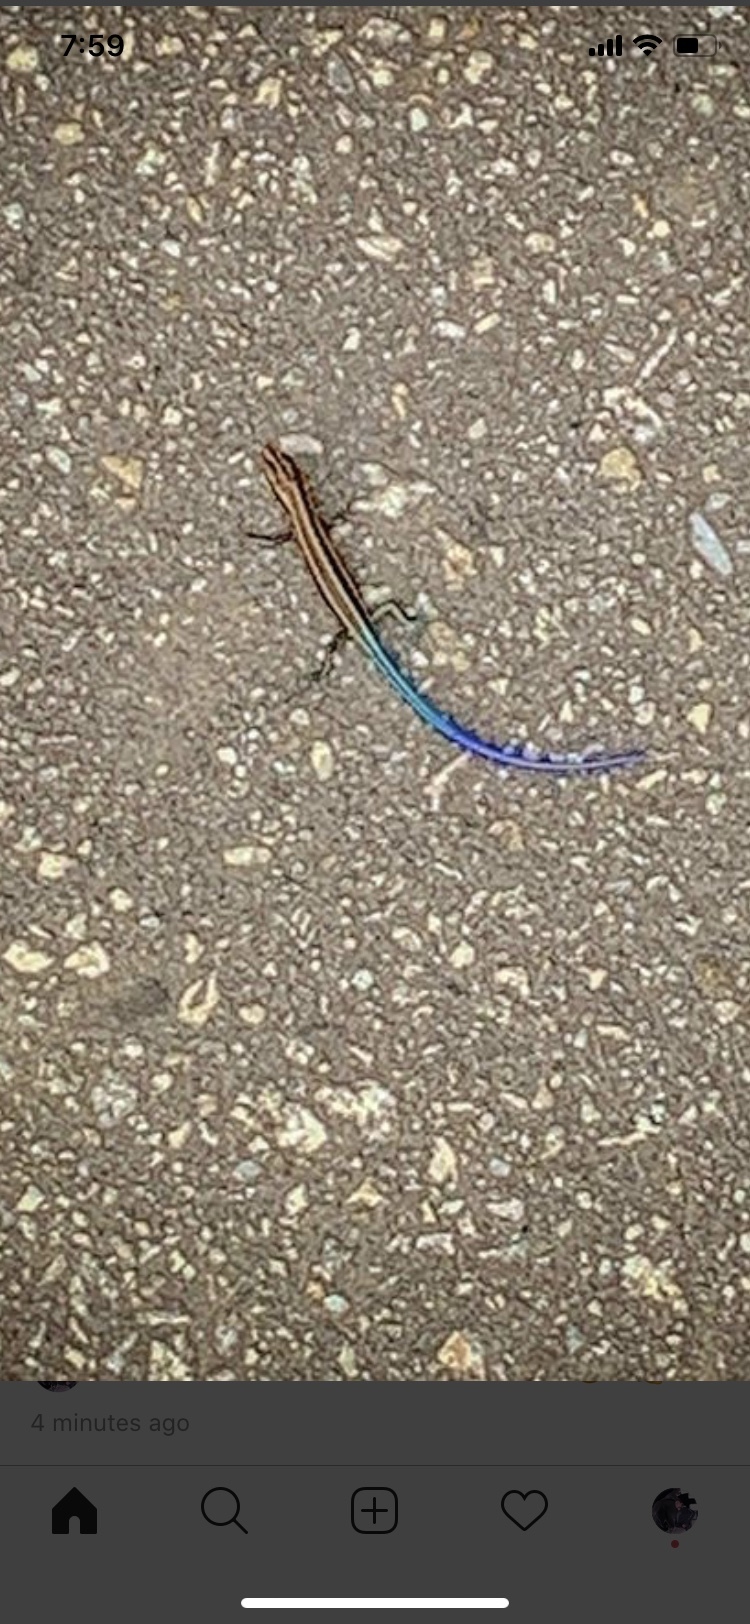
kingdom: Animalia
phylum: Chordata
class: Squamata
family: Scincidae
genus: Plestiodon
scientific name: Plestiodon skiltonianus
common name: Coronado island skink [interparietalis]
